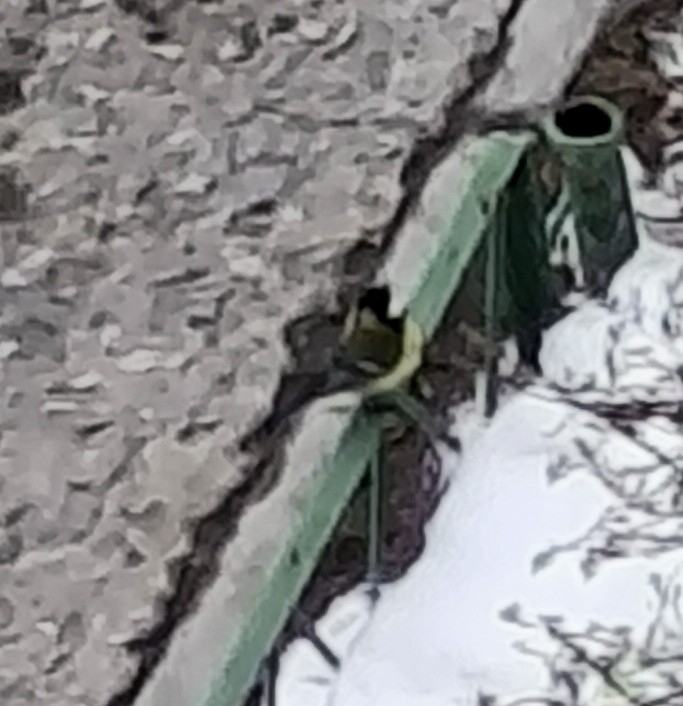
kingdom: Animalia
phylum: Chordata
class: Aves
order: Passeriformes
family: Paridae
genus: Parus
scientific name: Parus major
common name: Great tit
